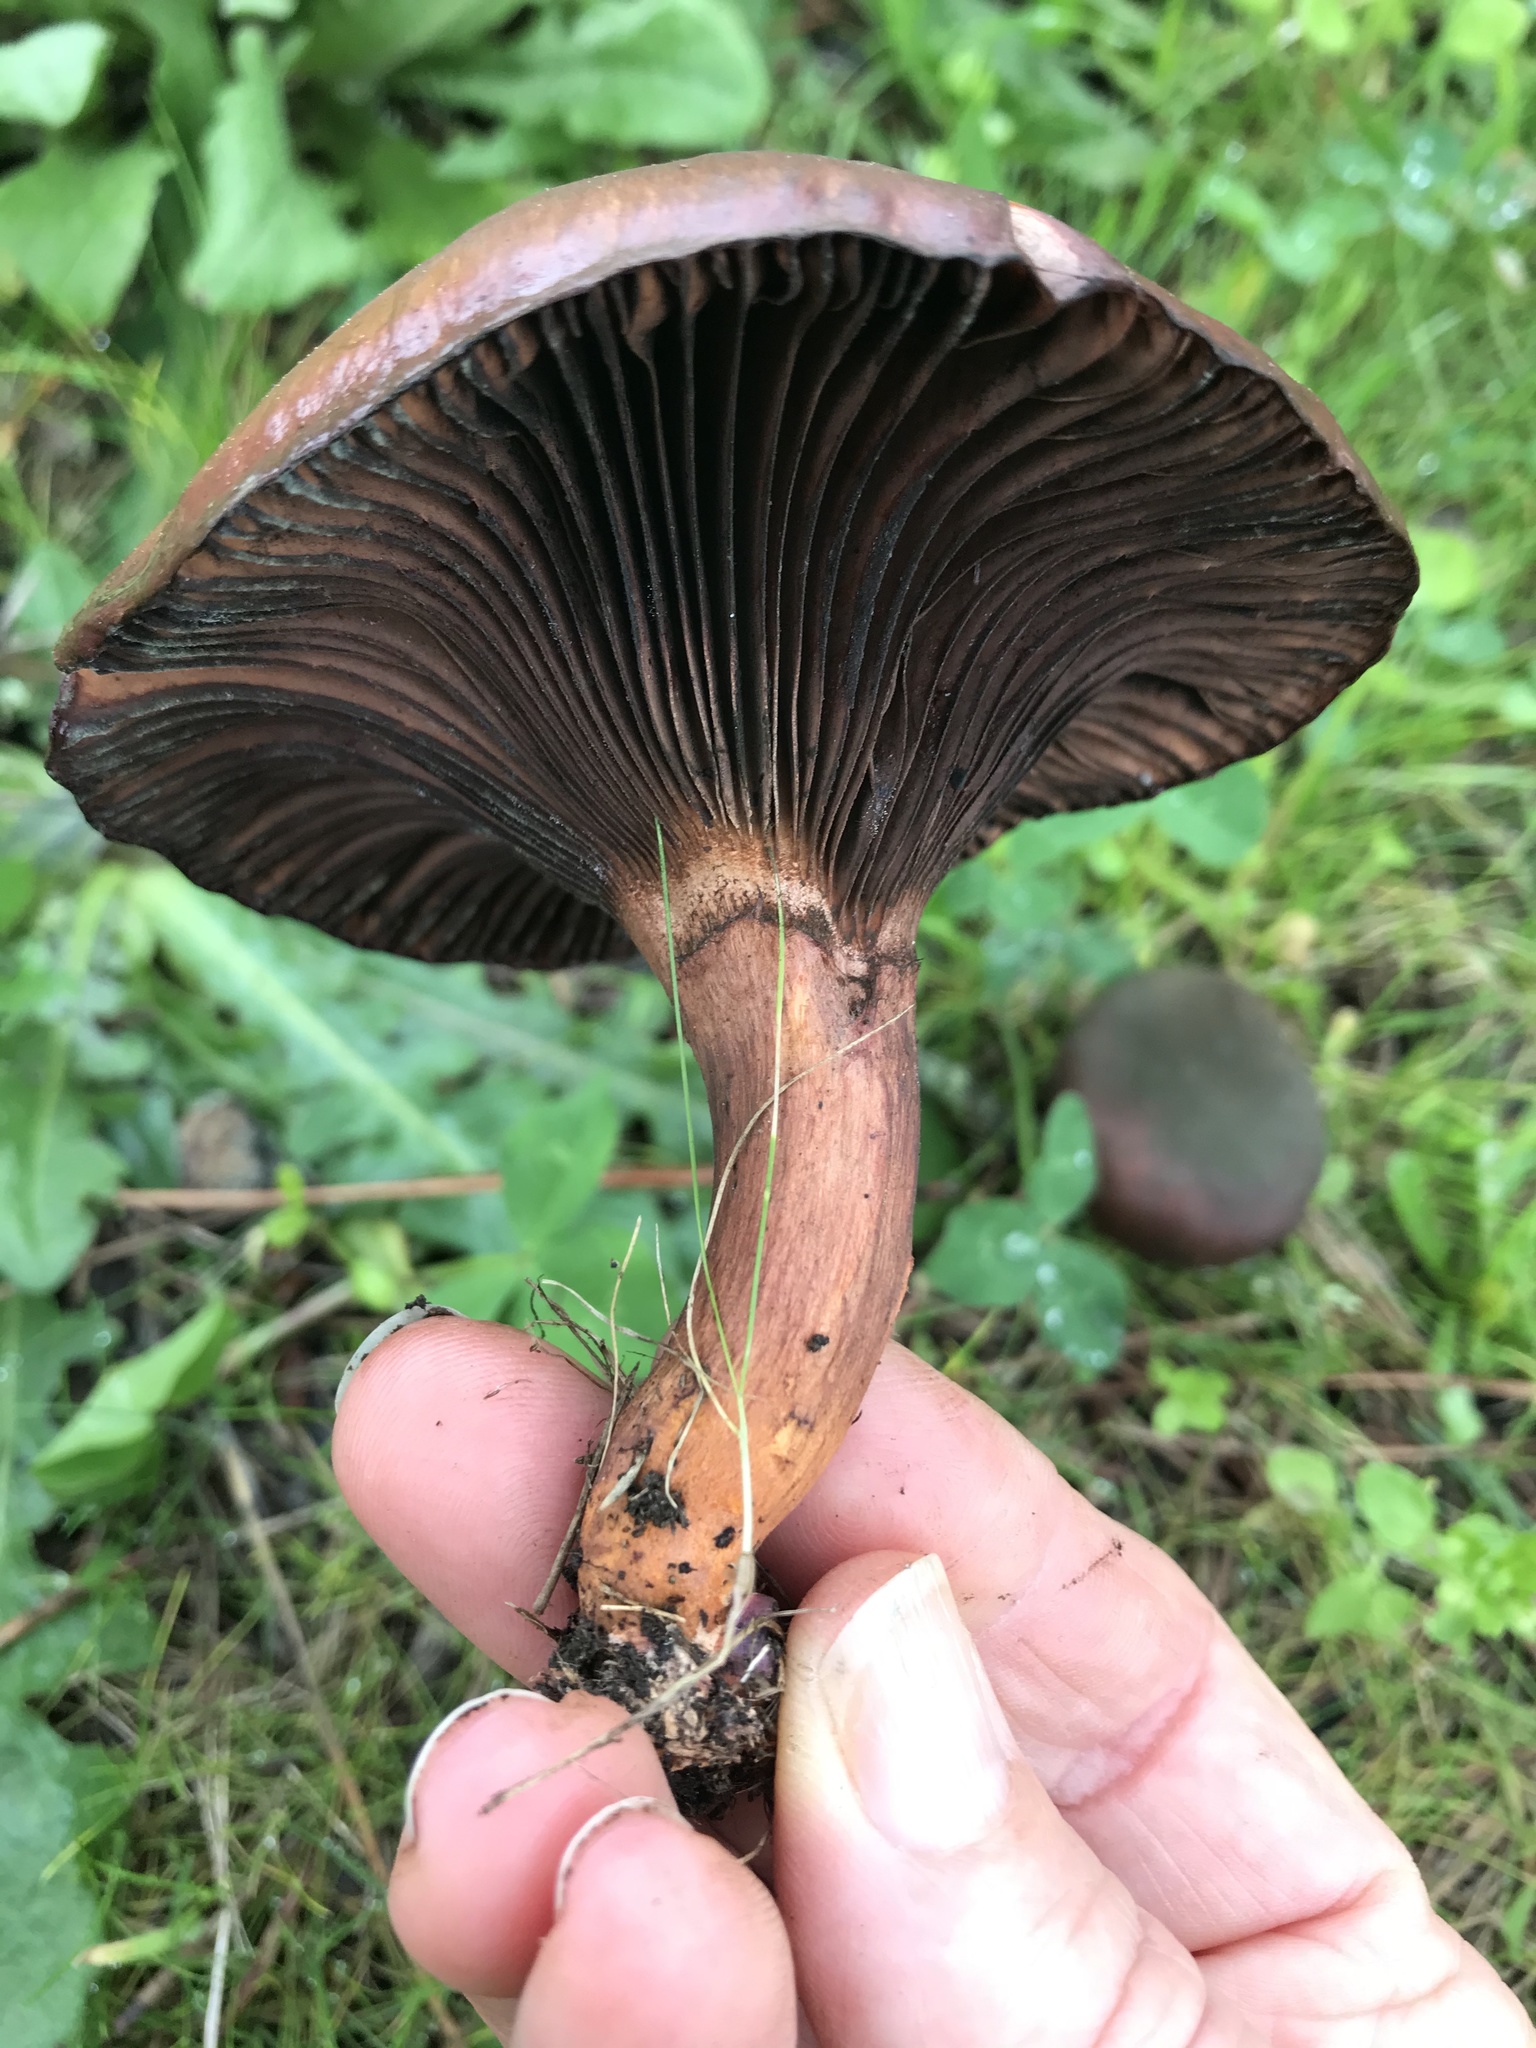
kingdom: Fungi
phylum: Basidiomycota
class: Agaricomycetes
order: Boletales
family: Gomphidiaceae
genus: Chroogomphus
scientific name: Chroogomphus vinicolor
